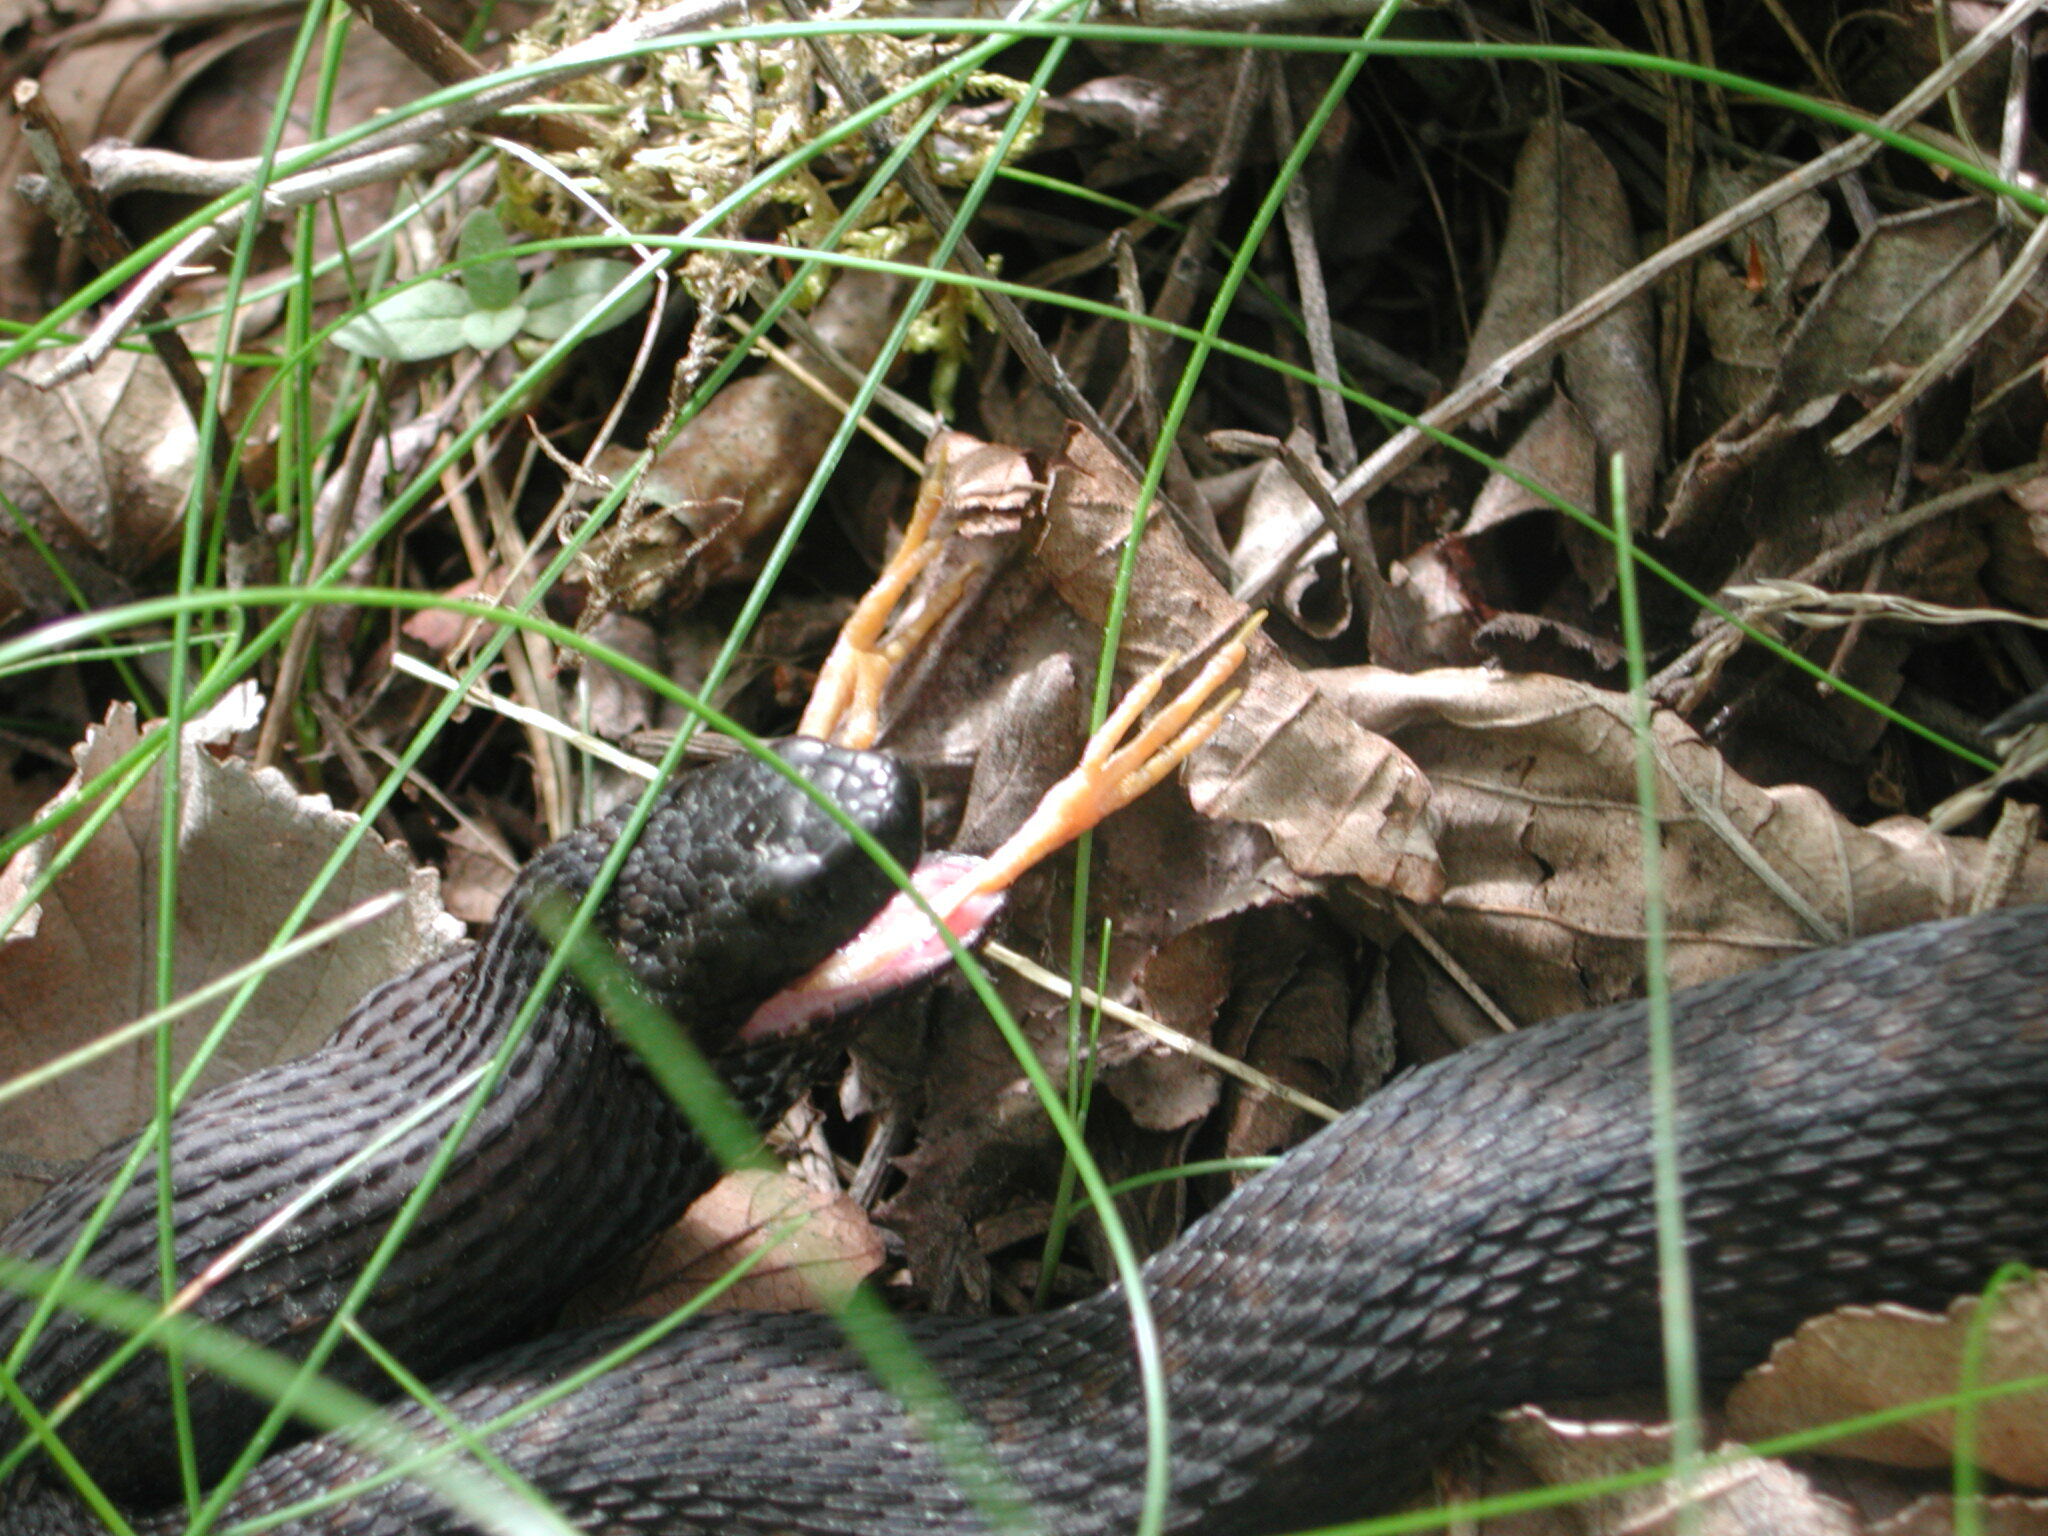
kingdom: Animalia
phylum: Chordata
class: Squamata
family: Viperidae
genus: Vipera
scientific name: Vipera berus
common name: Adder
